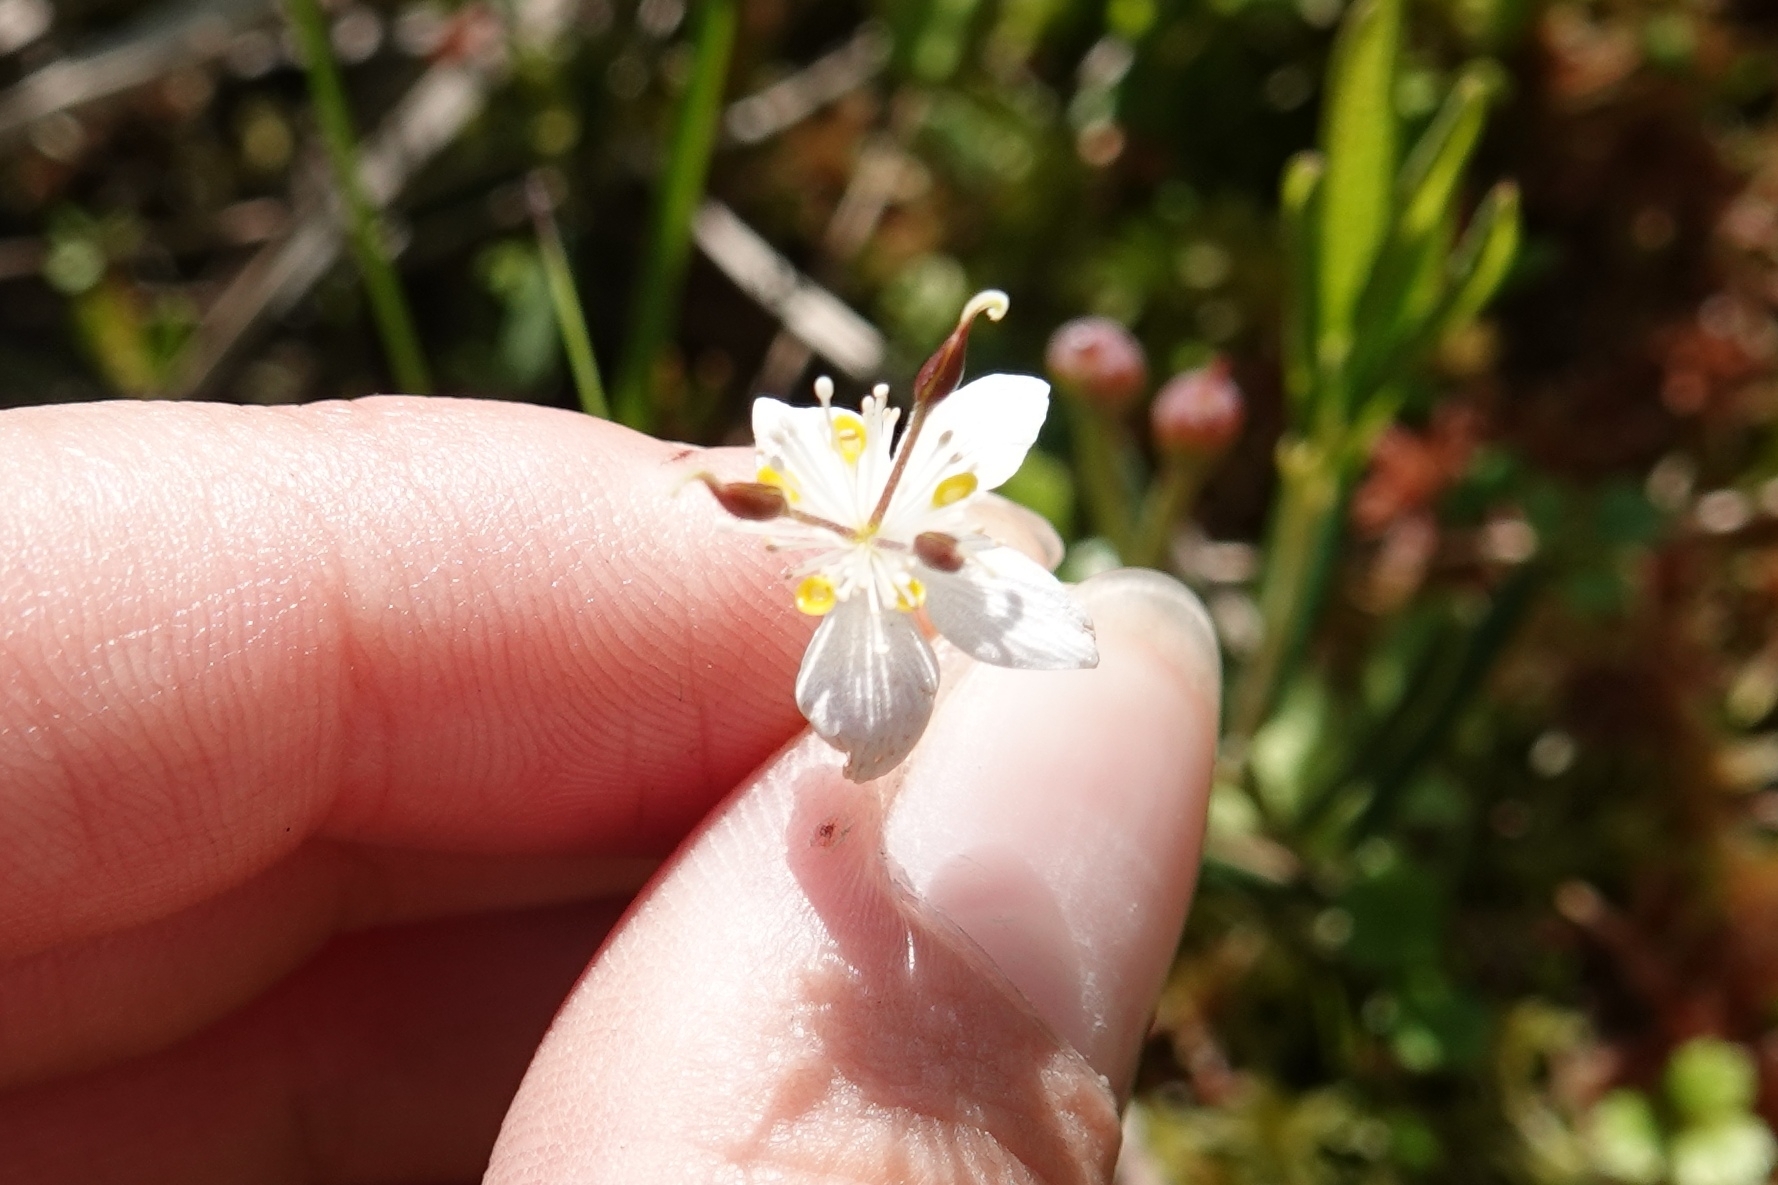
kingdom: Plantae
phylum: Tracheophyta
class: Magnoliopsida
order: Ranunculales
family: Ranunculaceae
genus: Coptis
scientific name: Coptis trifolia
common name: Canker-root
